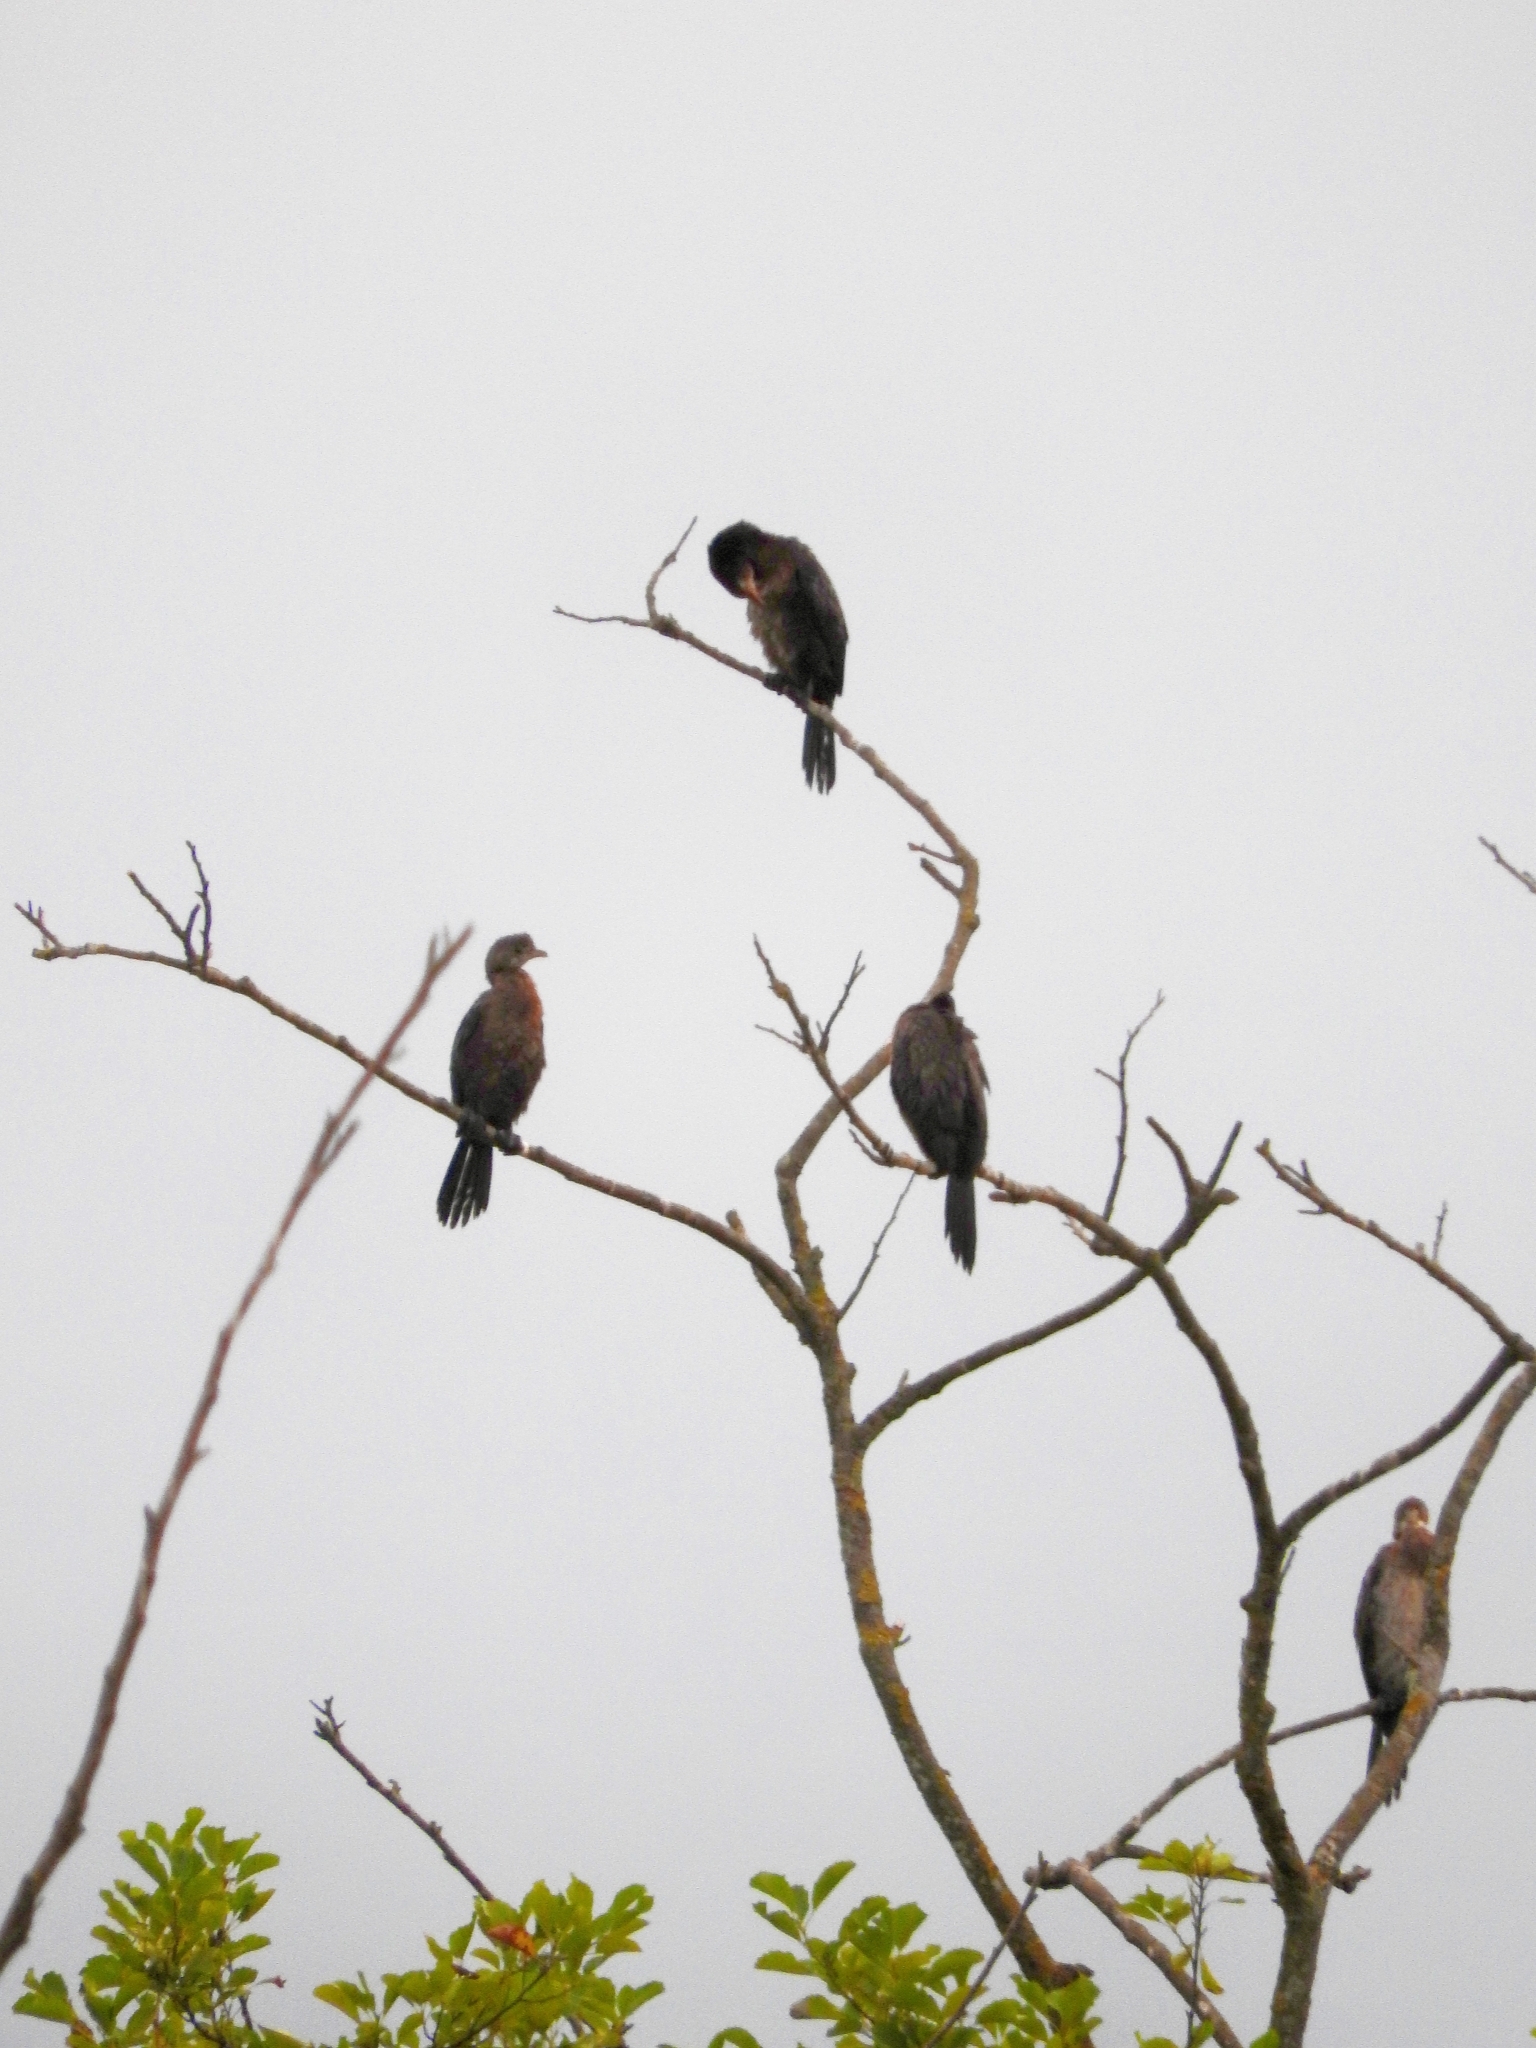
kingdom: Animalia
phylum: Chordata
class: Aves
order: Suliformes
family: Phalacrocoracidae
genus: Microcarbo
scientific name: Microcarbo pygmaeus
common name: Pygmy cormorant
